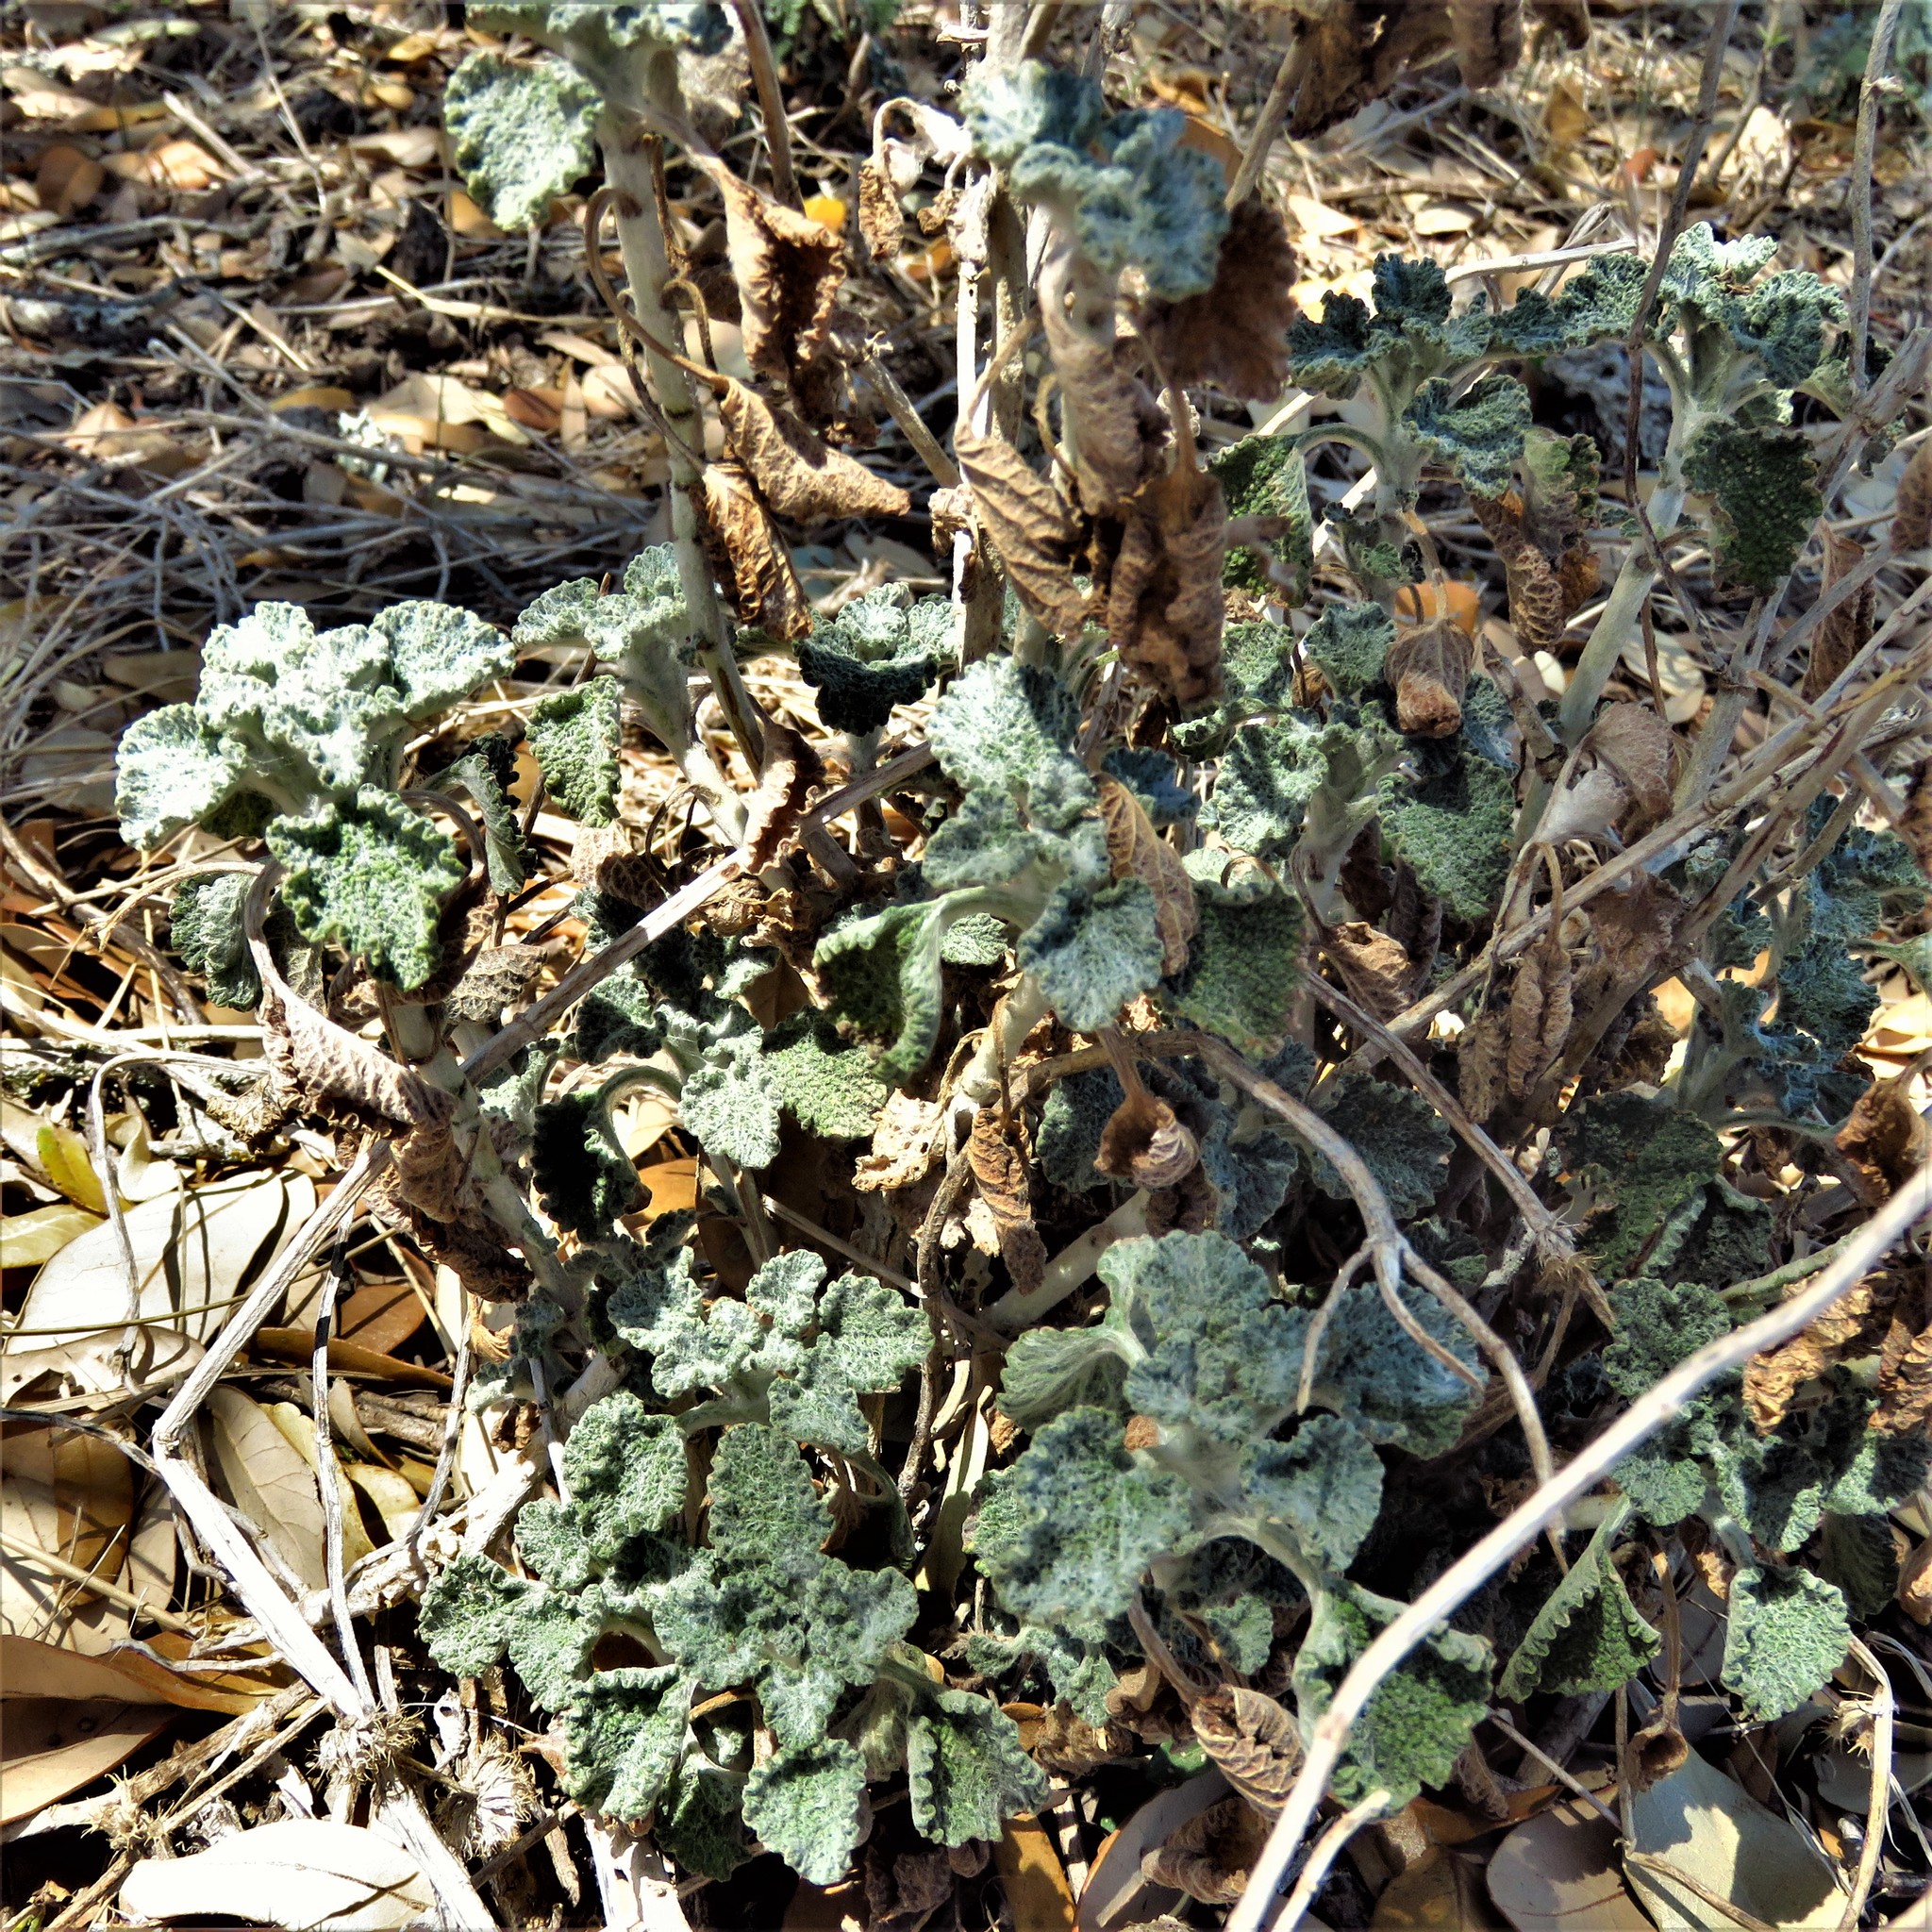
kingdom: Plantae
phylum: Tracheophyta
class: Magnoliopsida
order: Lamiales
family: Lamiaceae
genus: Marrubium
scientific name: Marrubium vulgare
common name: Horehound
